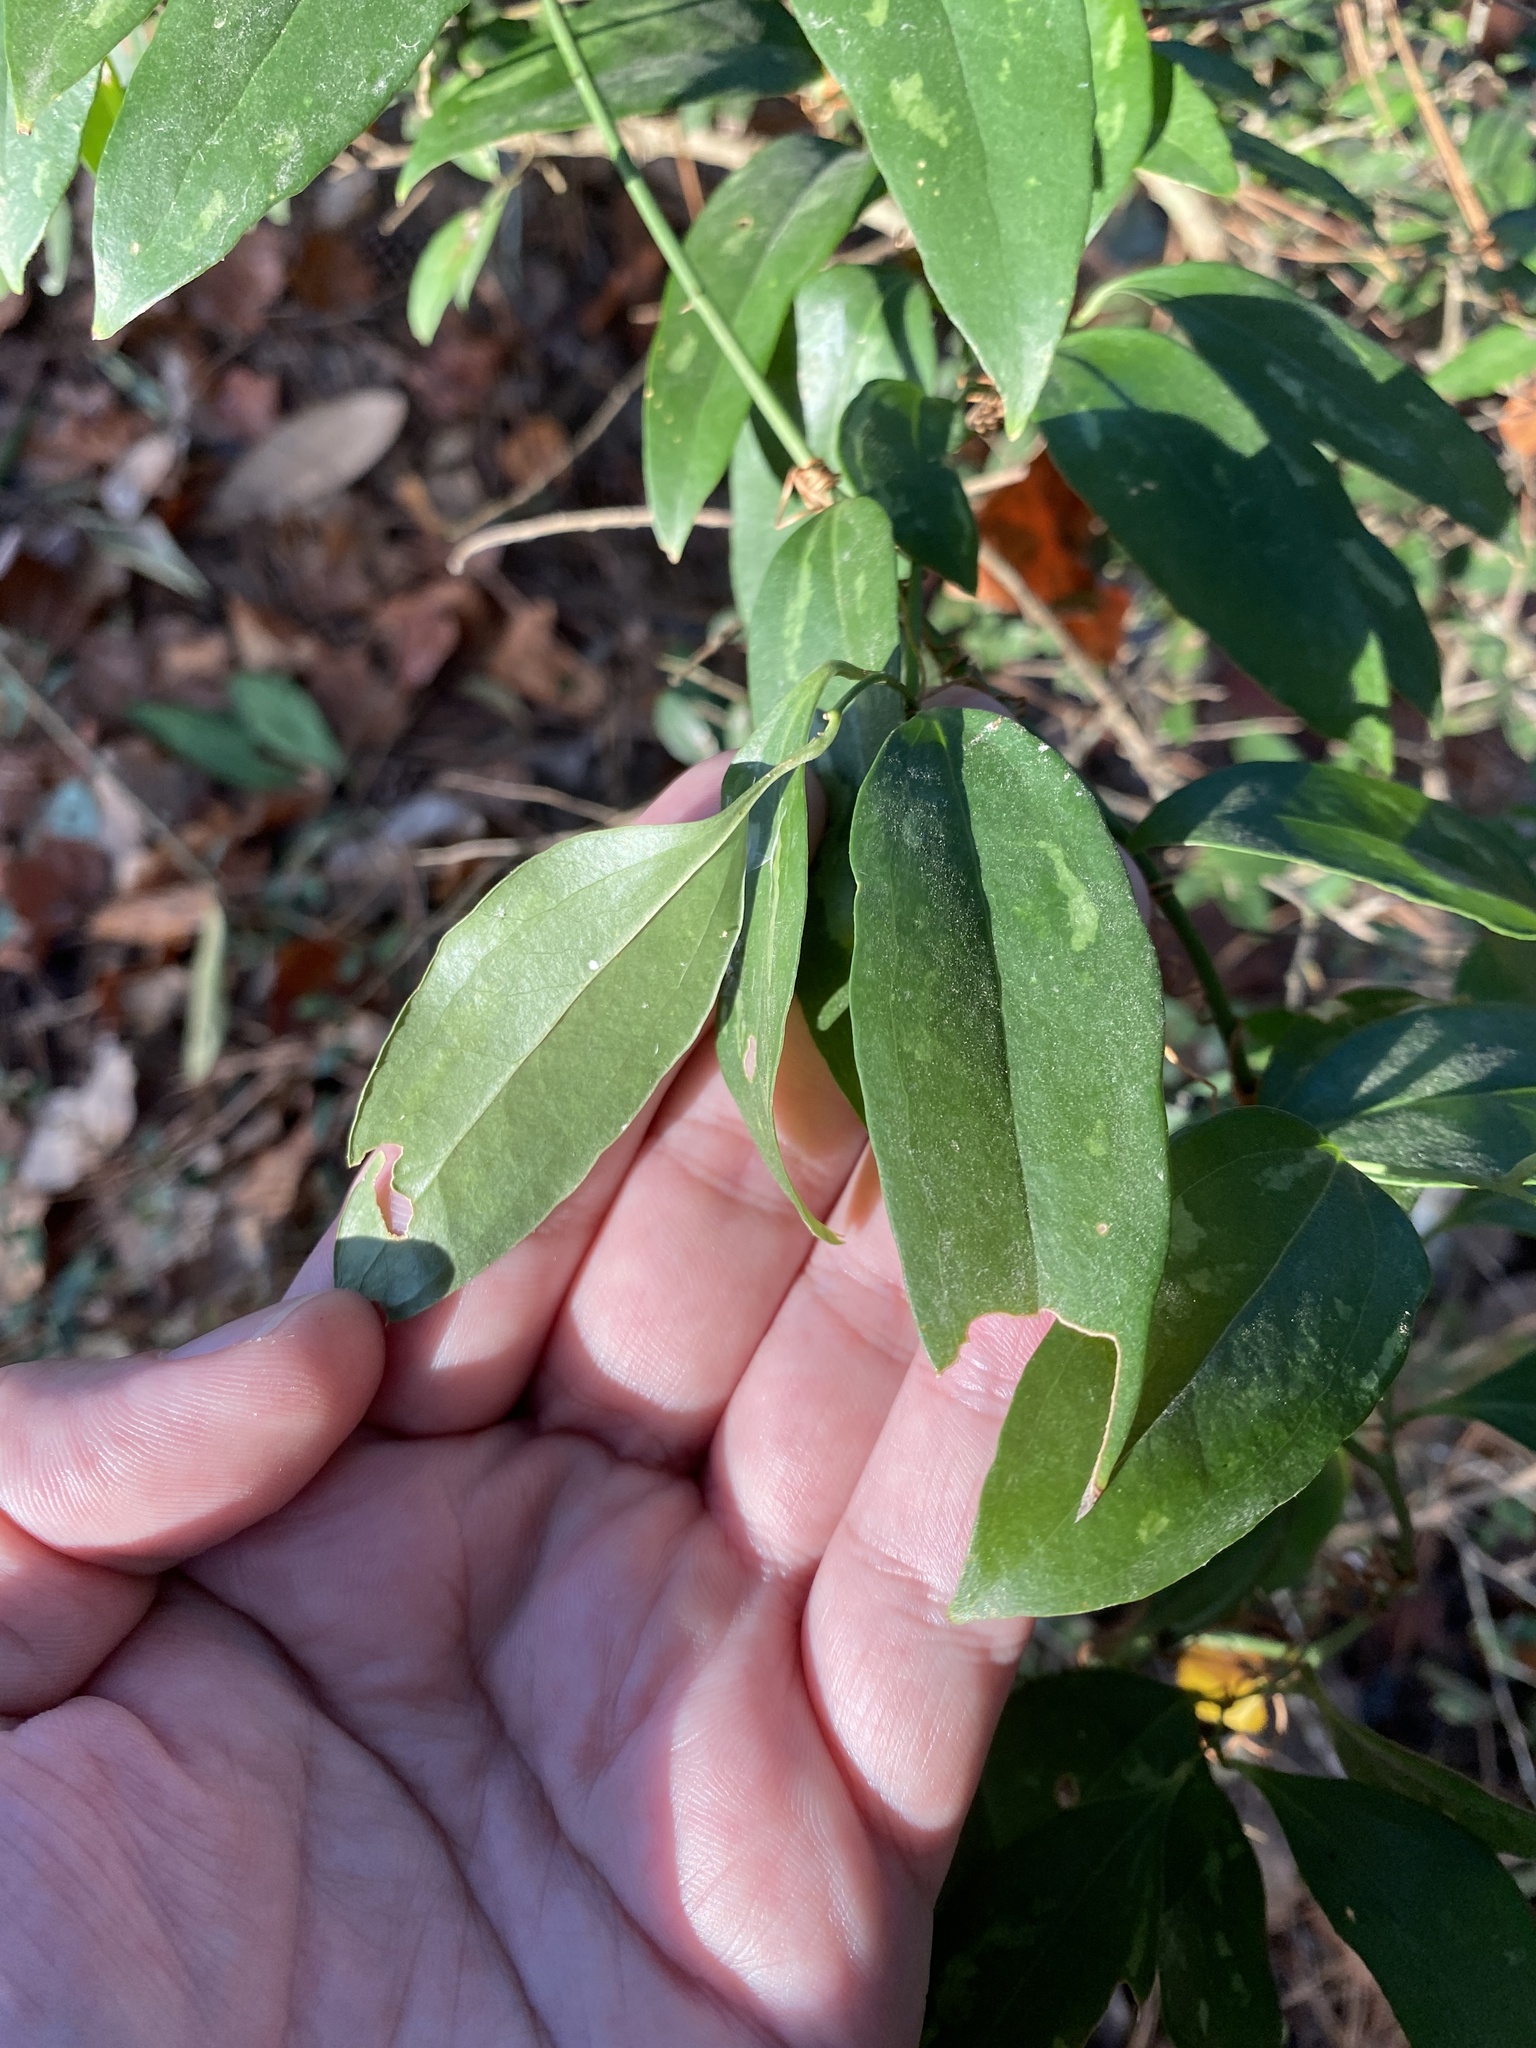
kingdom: Plantae
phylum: Tracheophyta
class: Liliopsida
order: Liliales
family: Smilacaceae
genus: Smilax
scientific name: Smilax maritima
